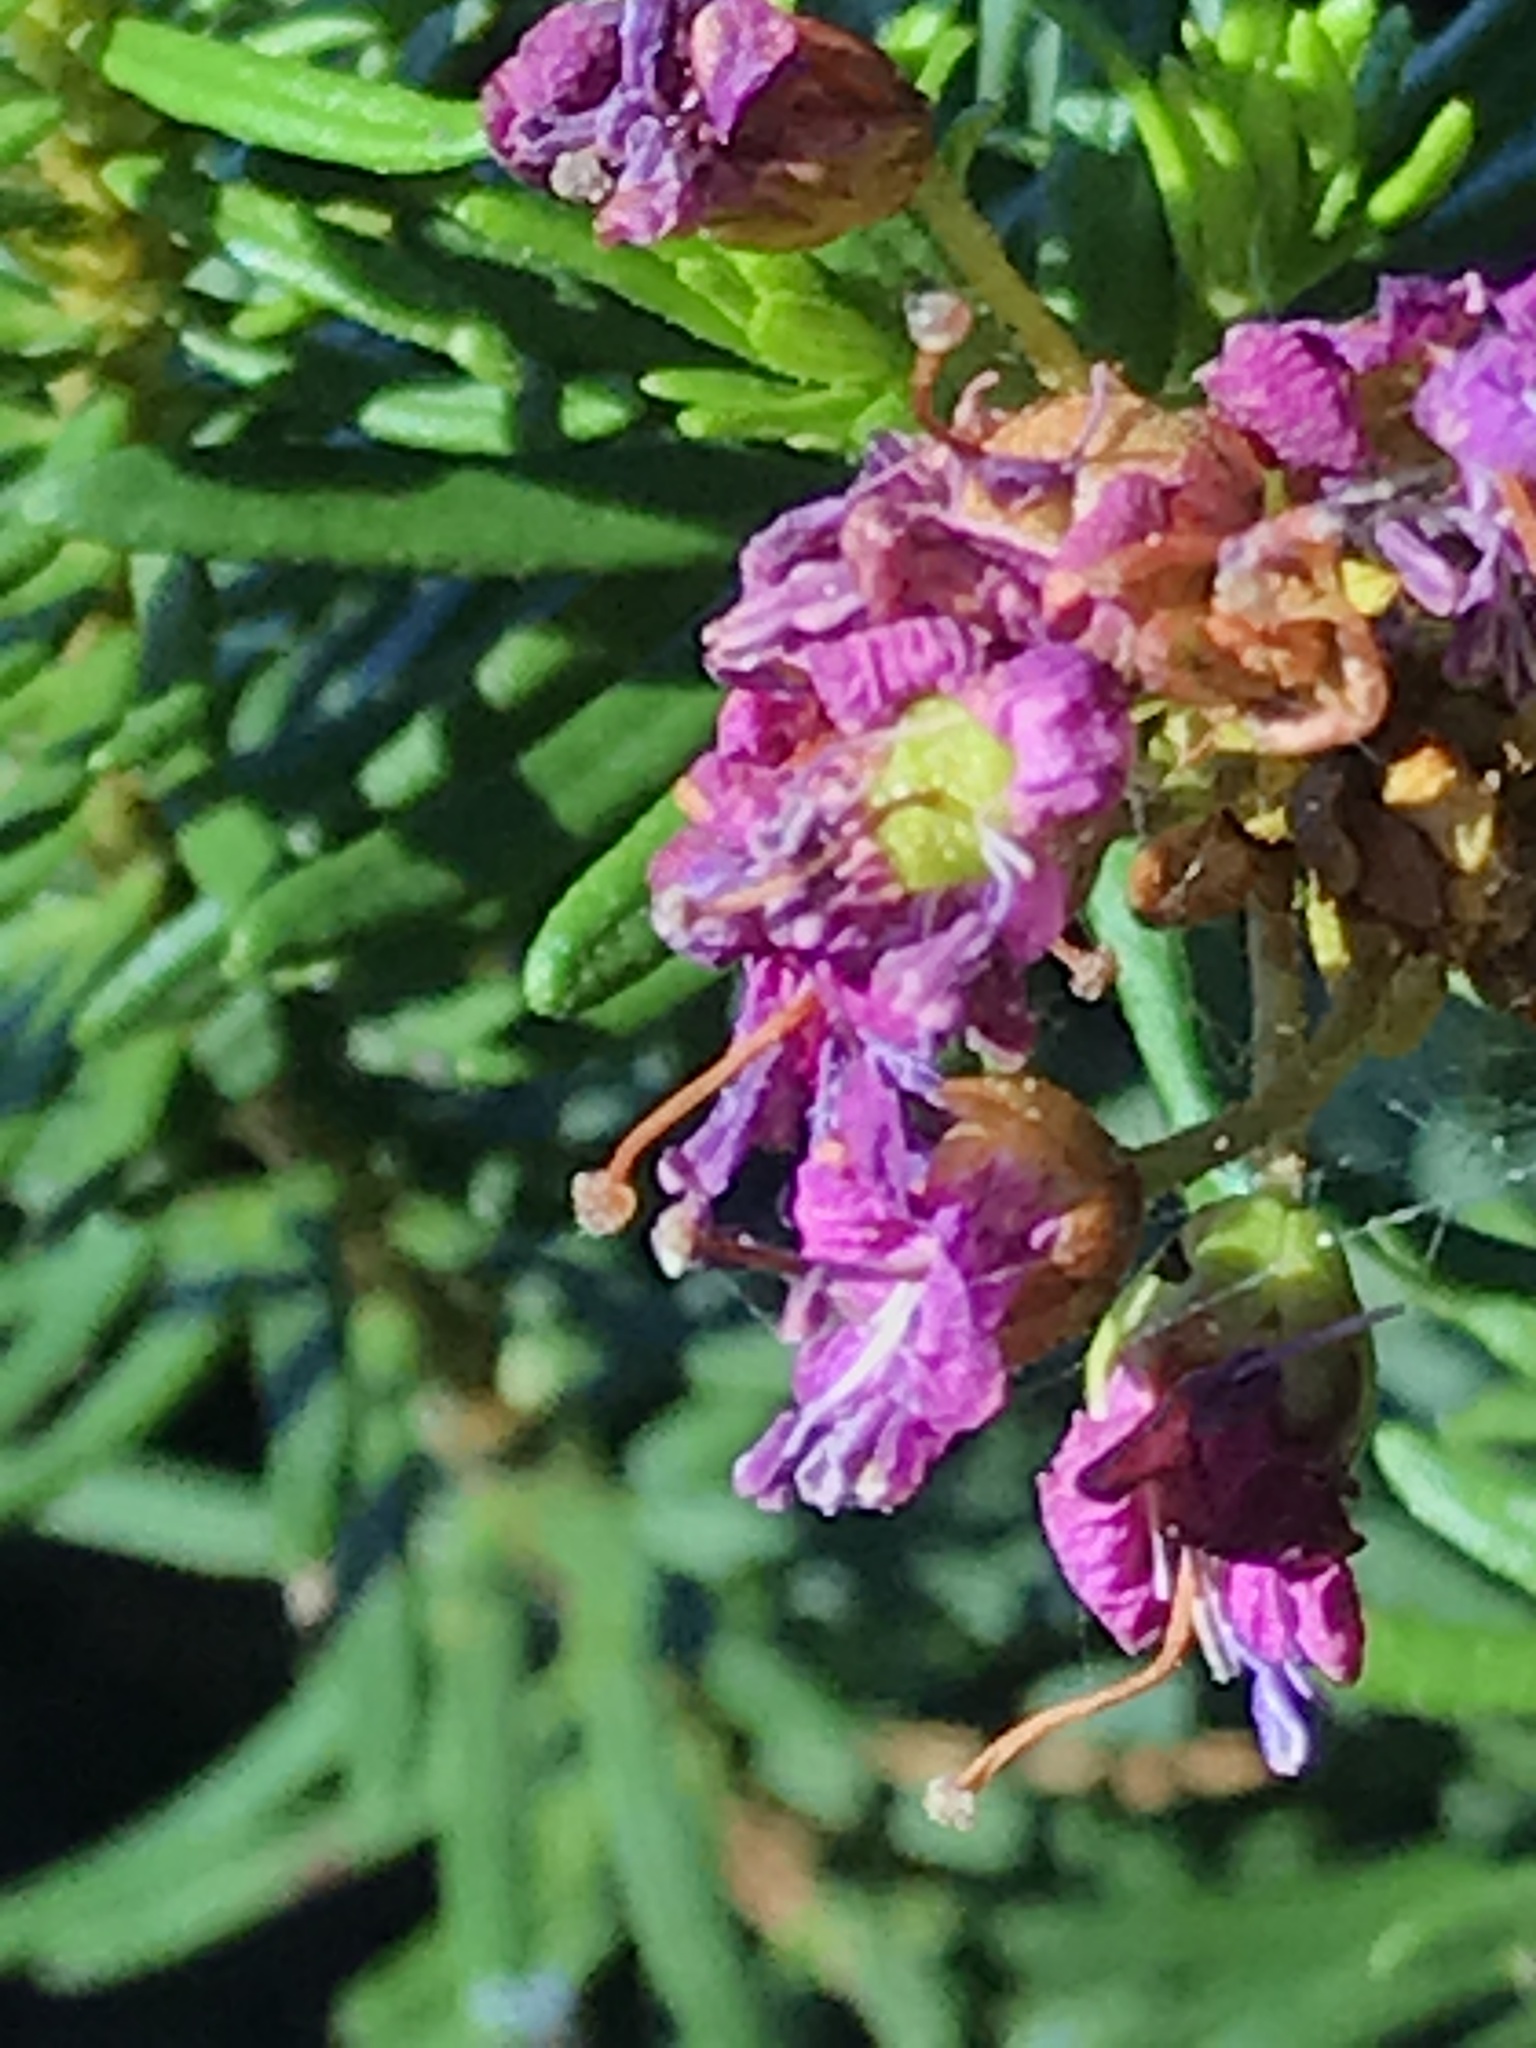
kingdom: Plantae
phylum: Tracheophyta
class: Magnoliopsida
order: Ericales
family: Ericaceae
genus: Phyllodoce
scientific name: Phyllodoce breweri
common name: Brewer's mountain-heather
